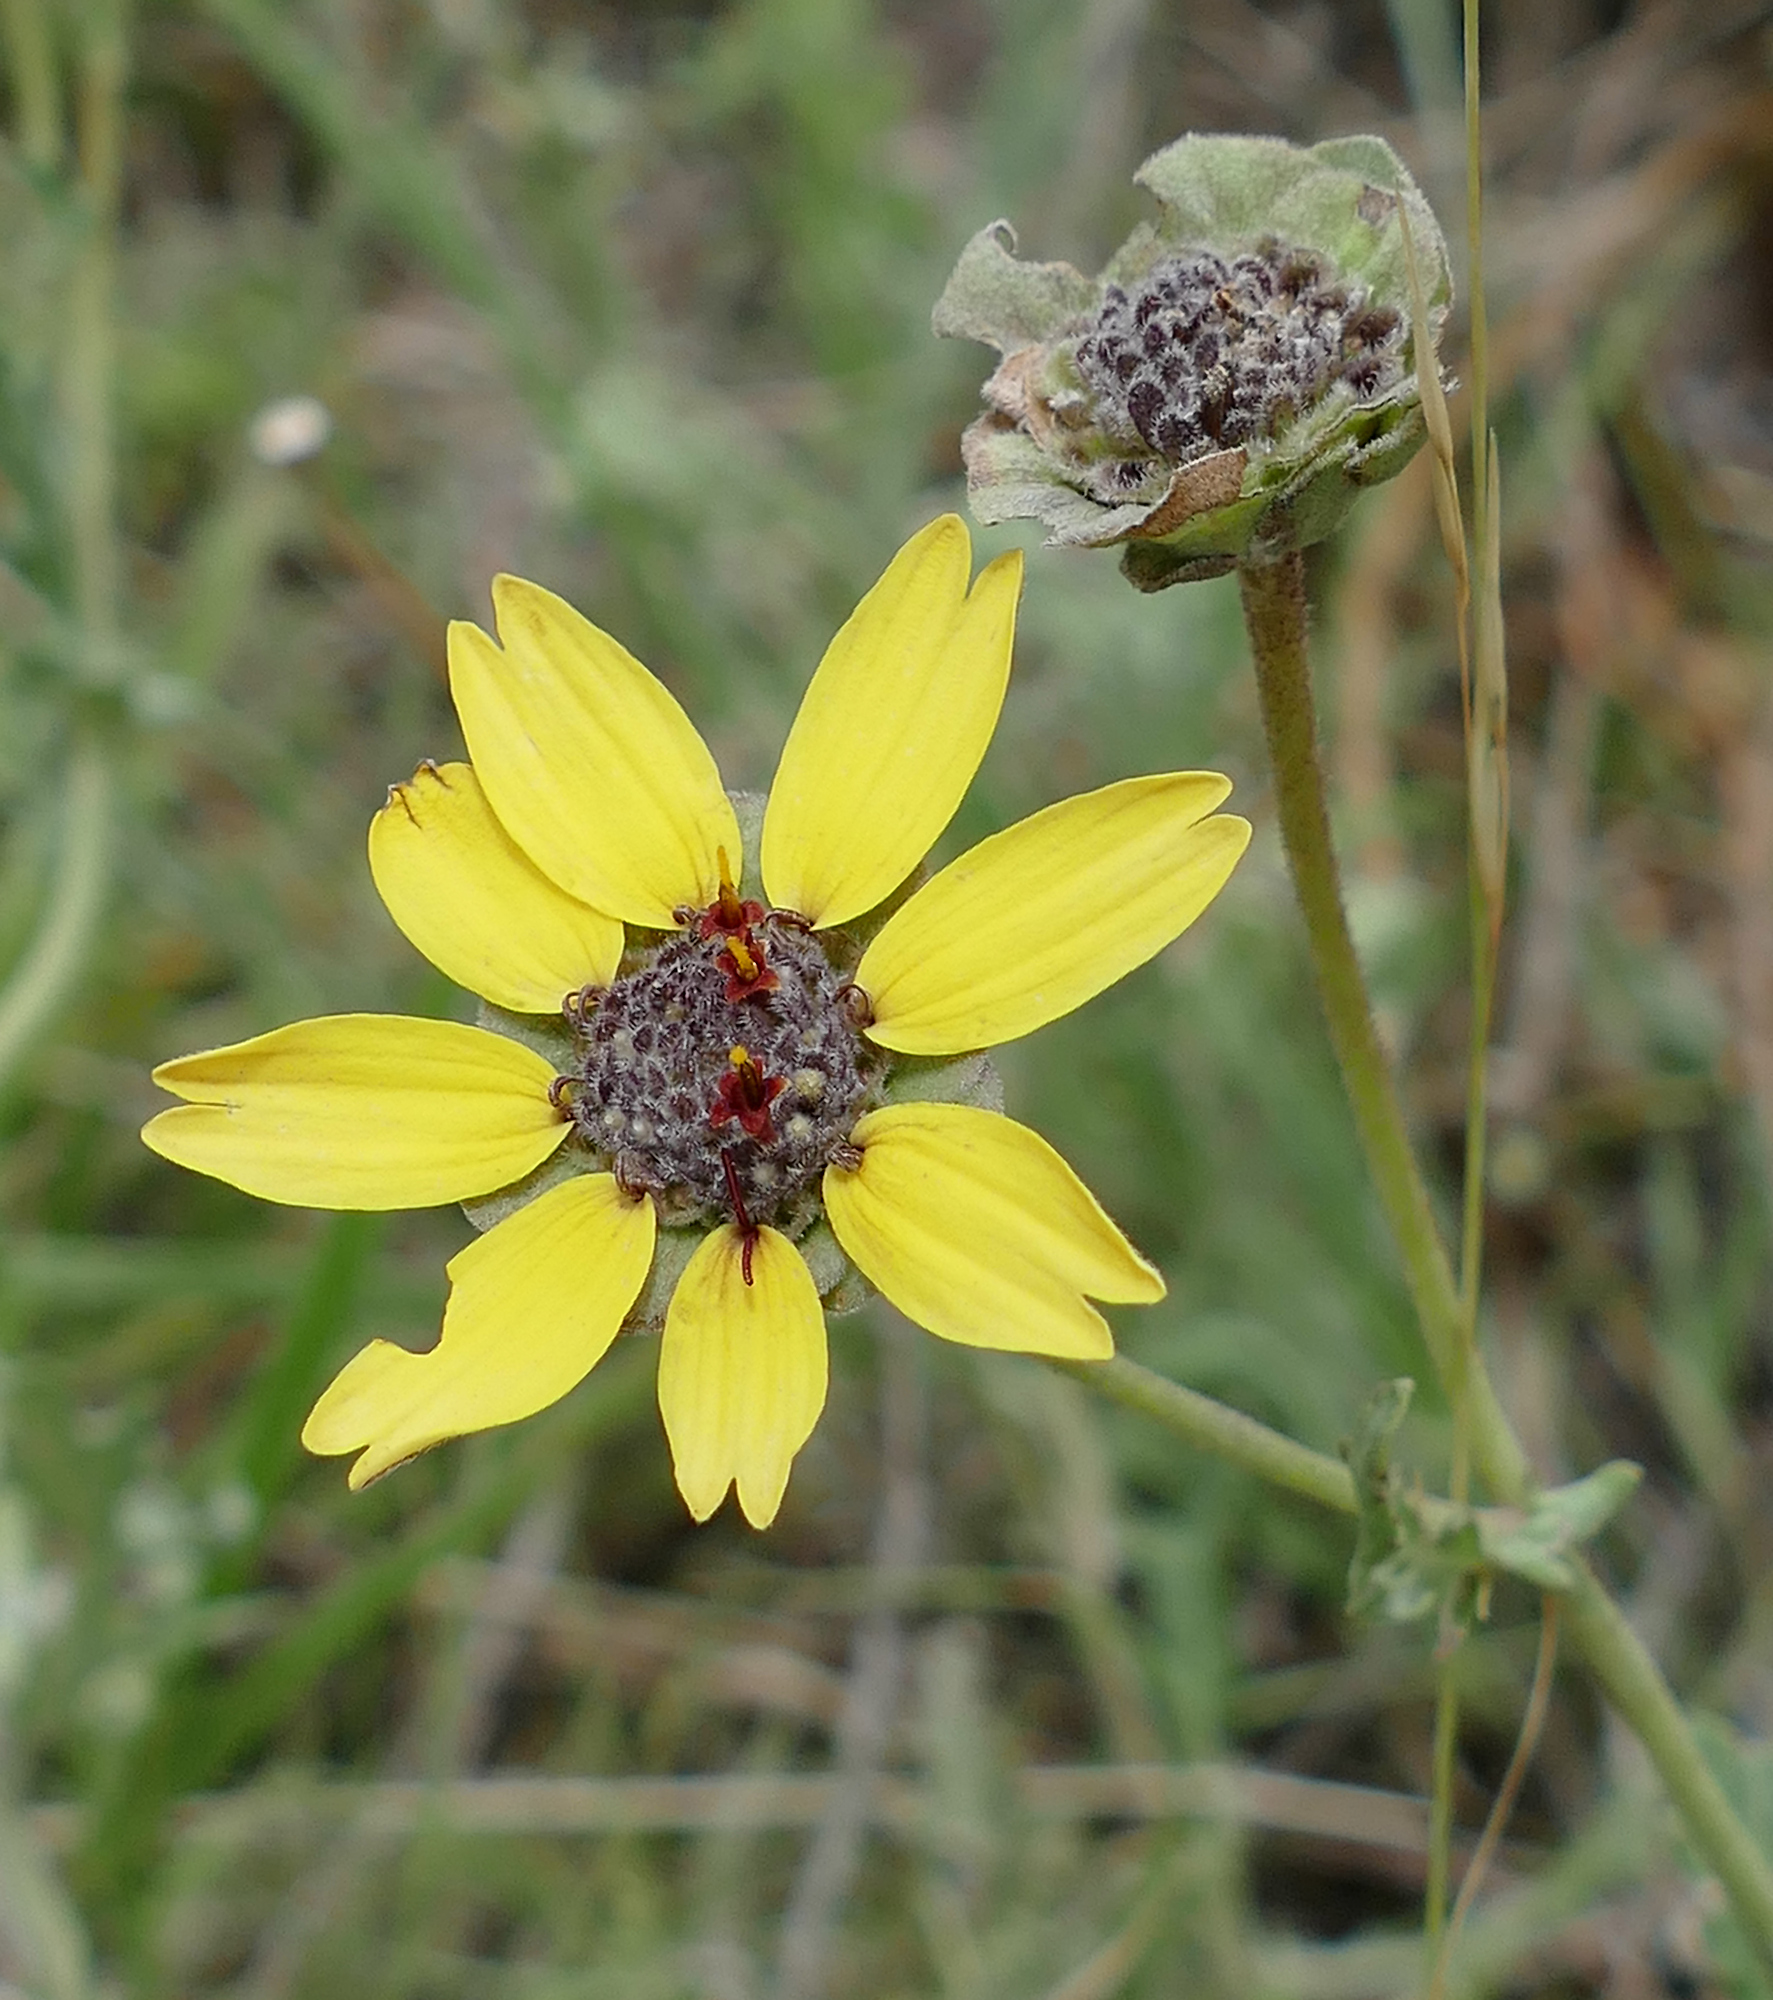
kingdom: Plantae
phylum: Tracheophyta
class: Magnoliopsida
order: Asterales
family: Asteraceae
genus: Berlandiera
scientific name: Berlandiera lyrata
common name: Chocolate-flower
